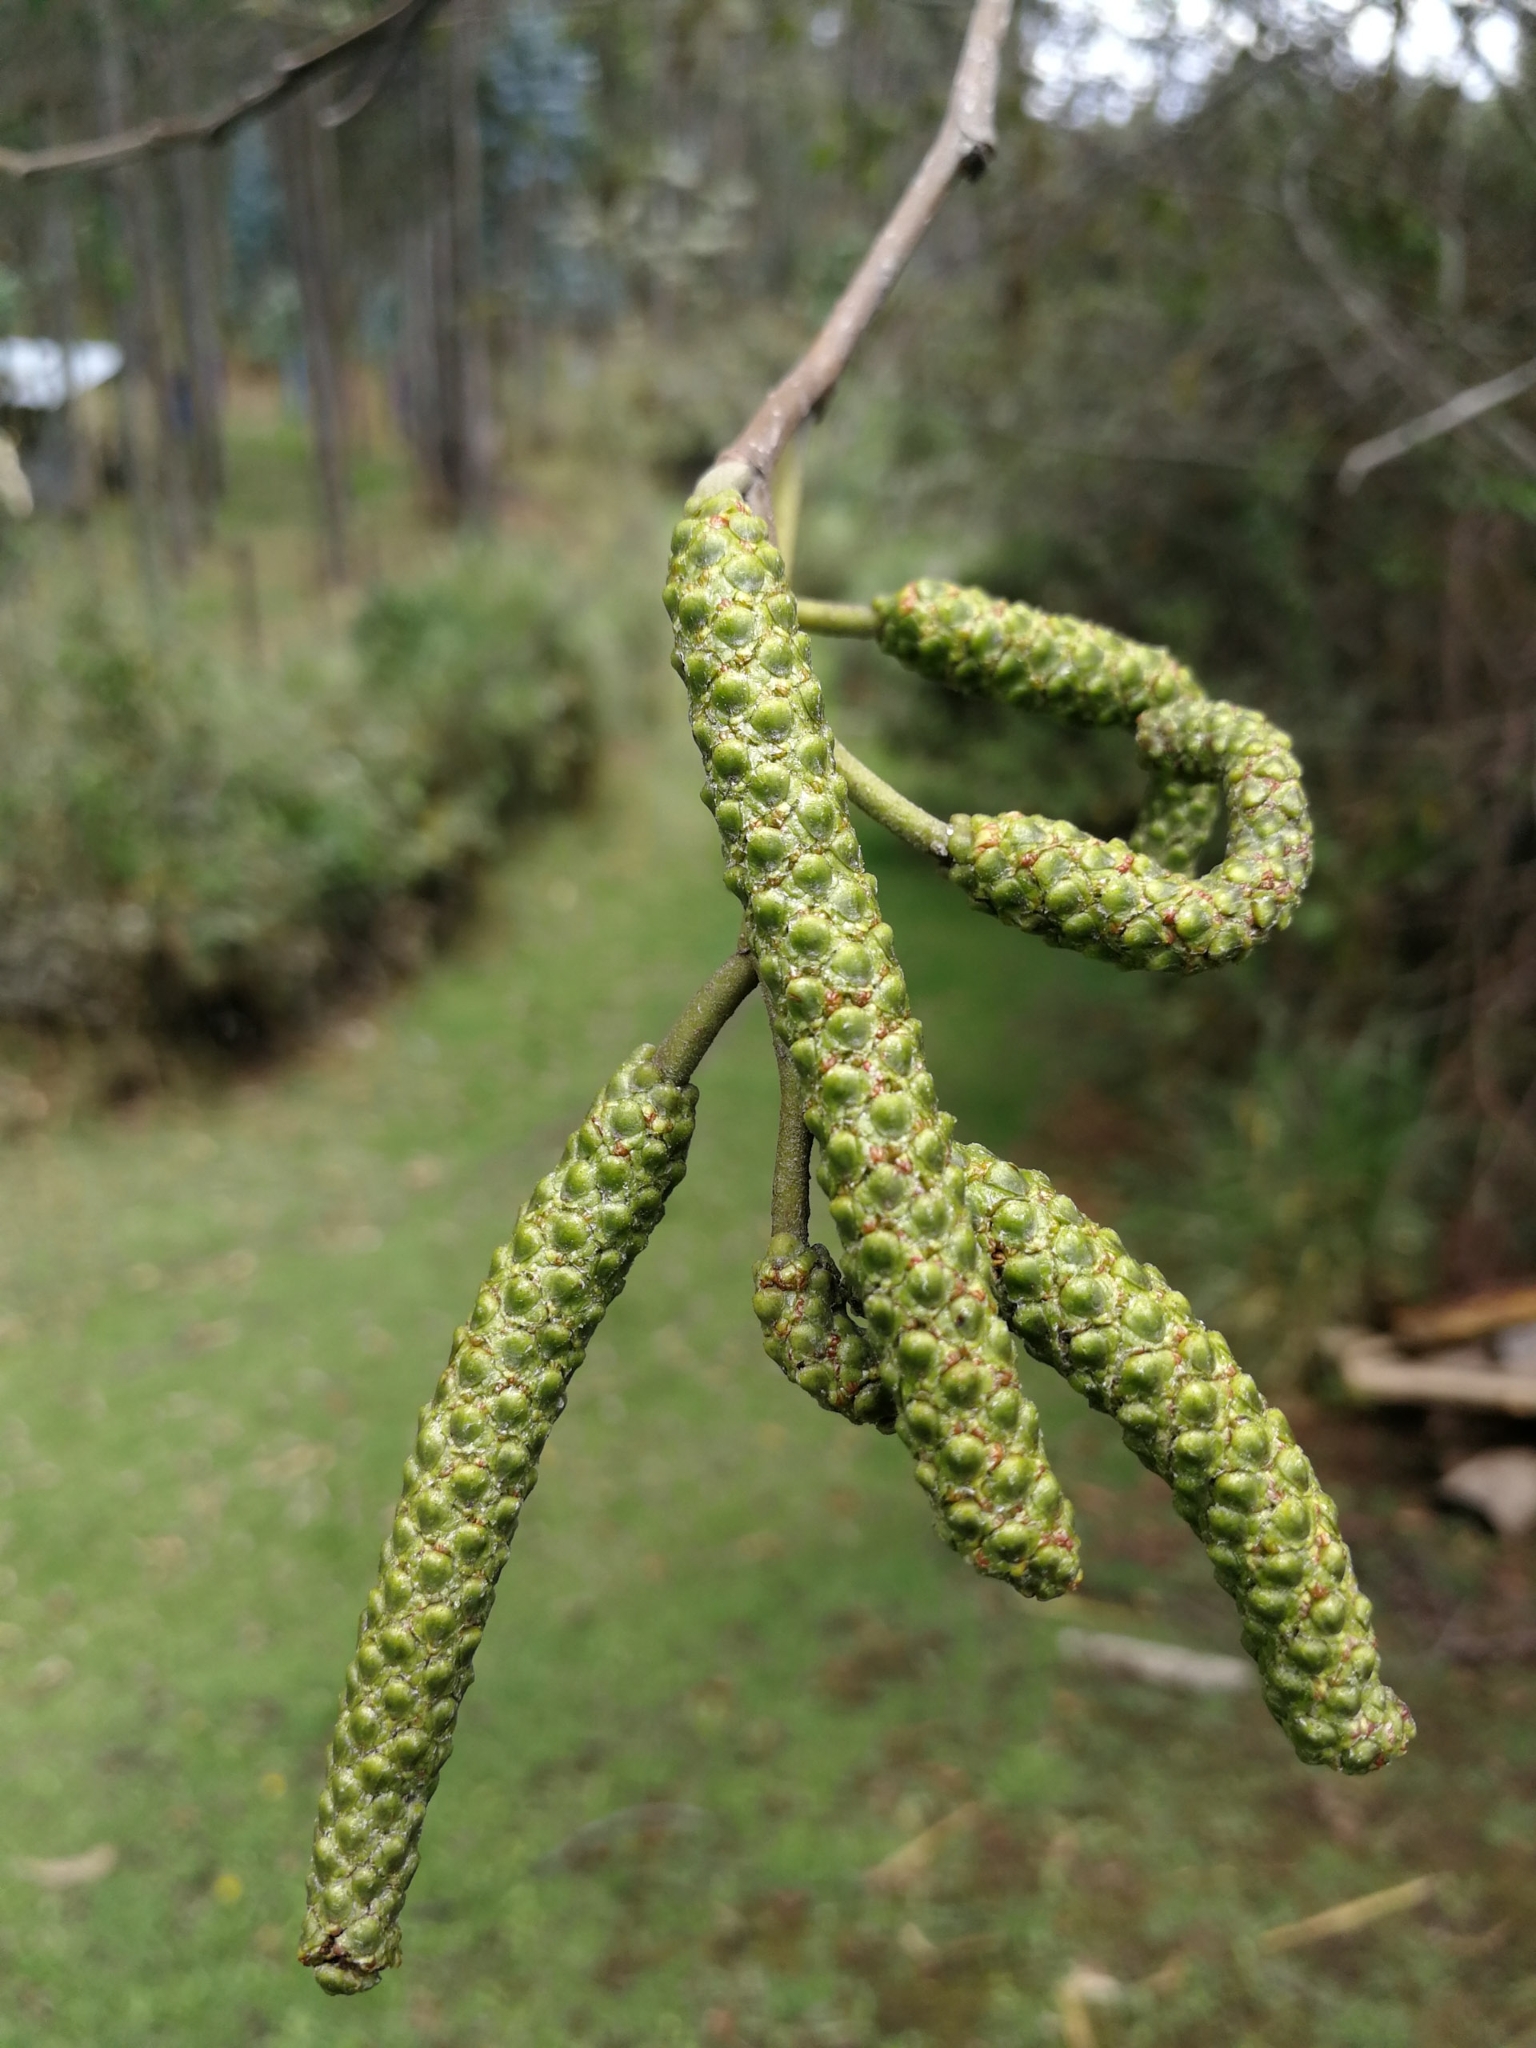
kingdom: Plantae
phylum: Tracheophyta
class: Magnoliopsida
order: Fagales
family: Betulaceae
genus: Alnus
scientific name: Alnus acuminata
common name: Alder
